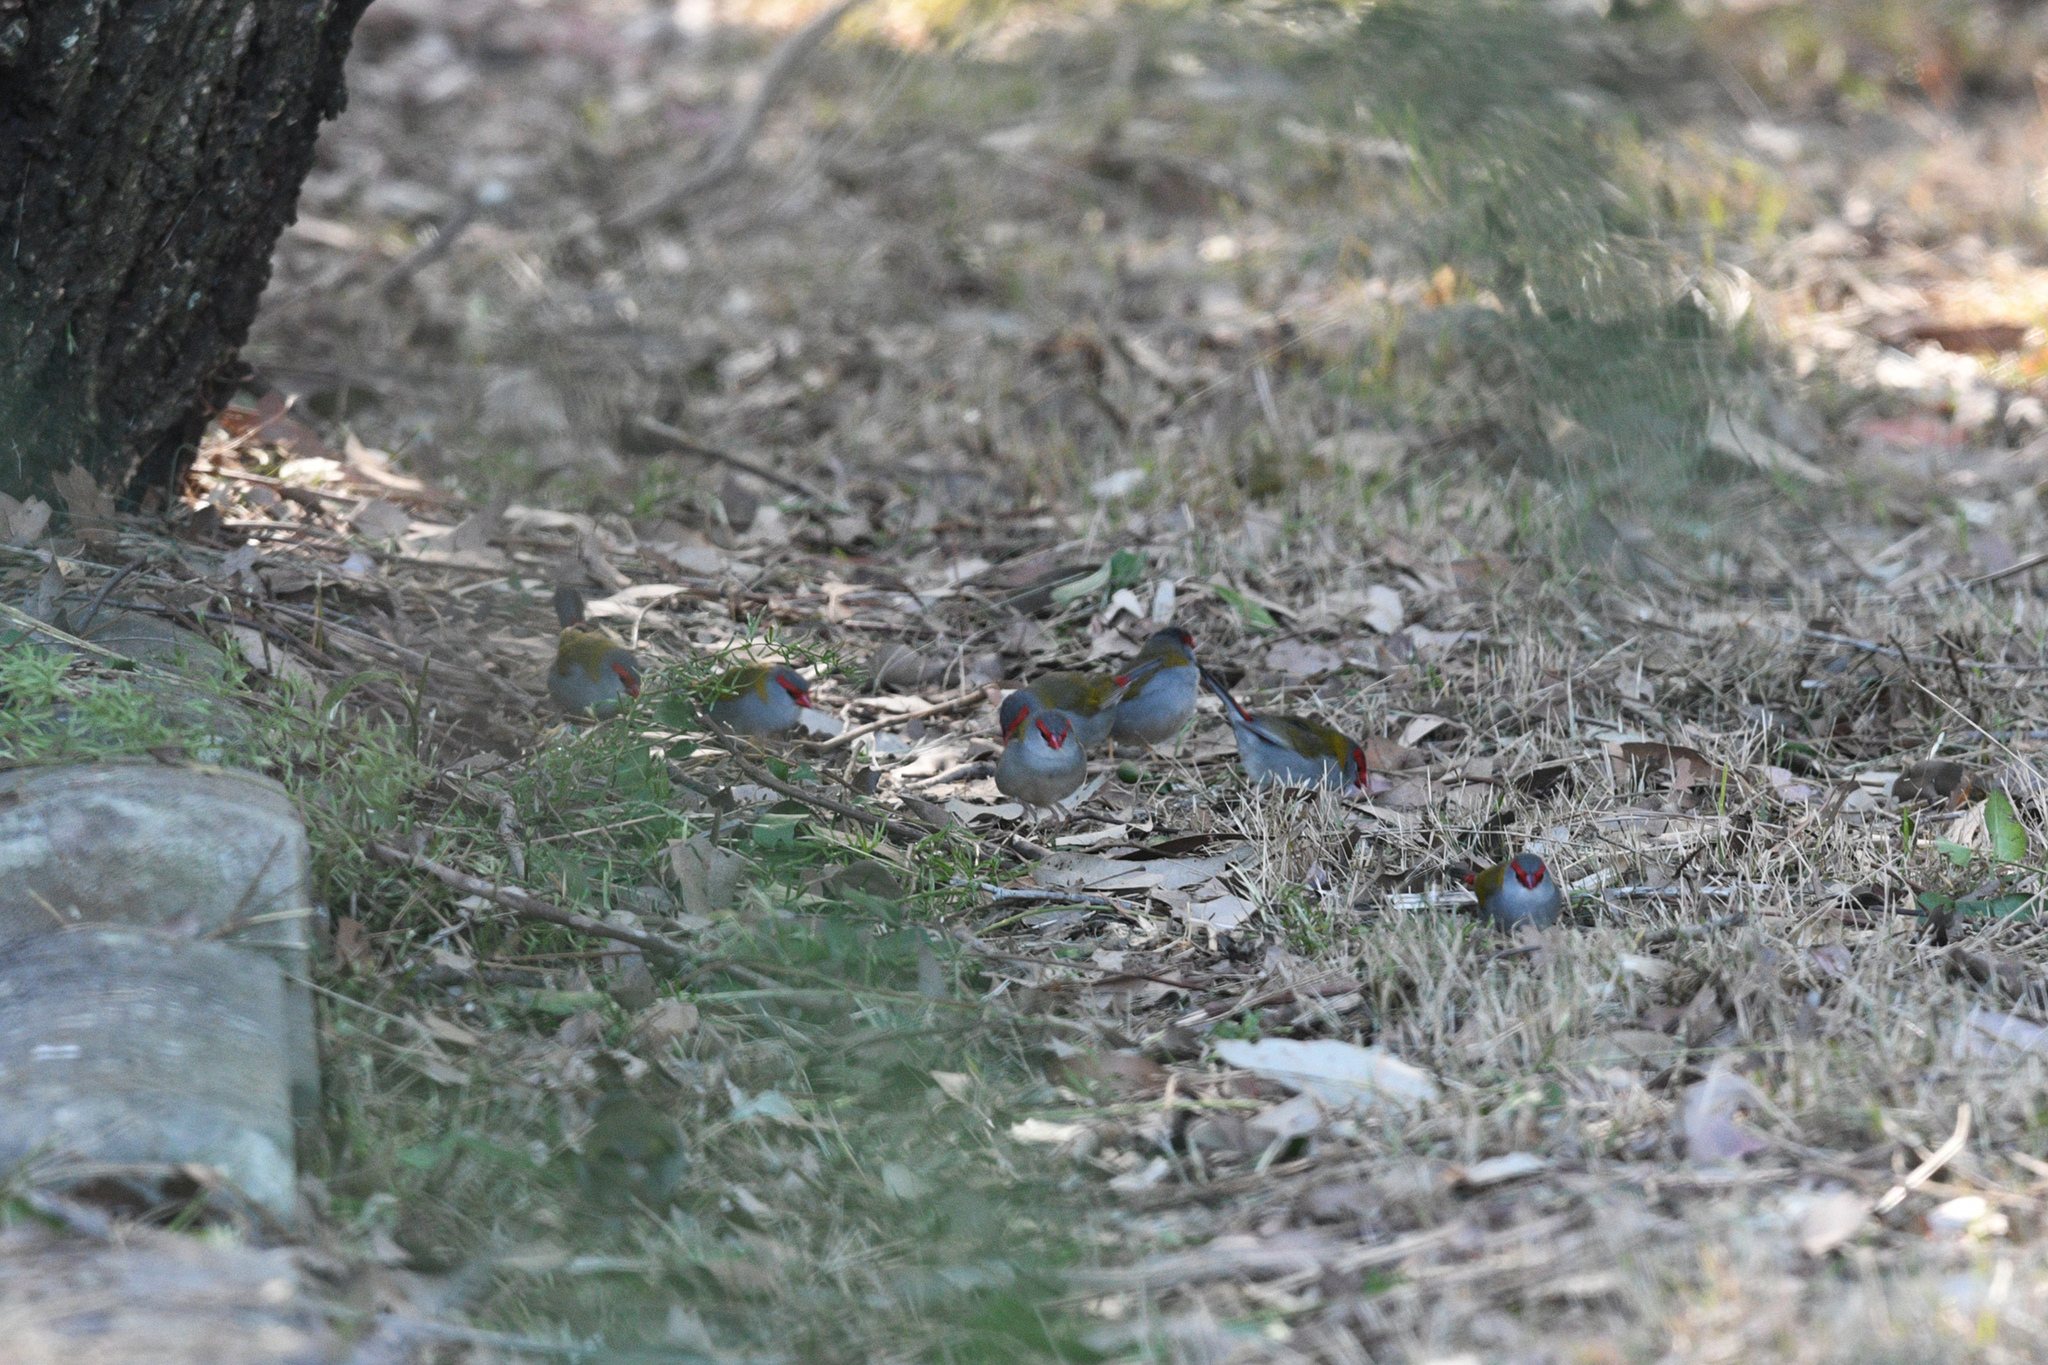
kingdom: Animalia
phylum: Chordata
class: Aves
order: Passeriformes
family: Estrildidae
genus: Neochmia
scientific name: Neochmia temporalis
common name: Red-browed finch
